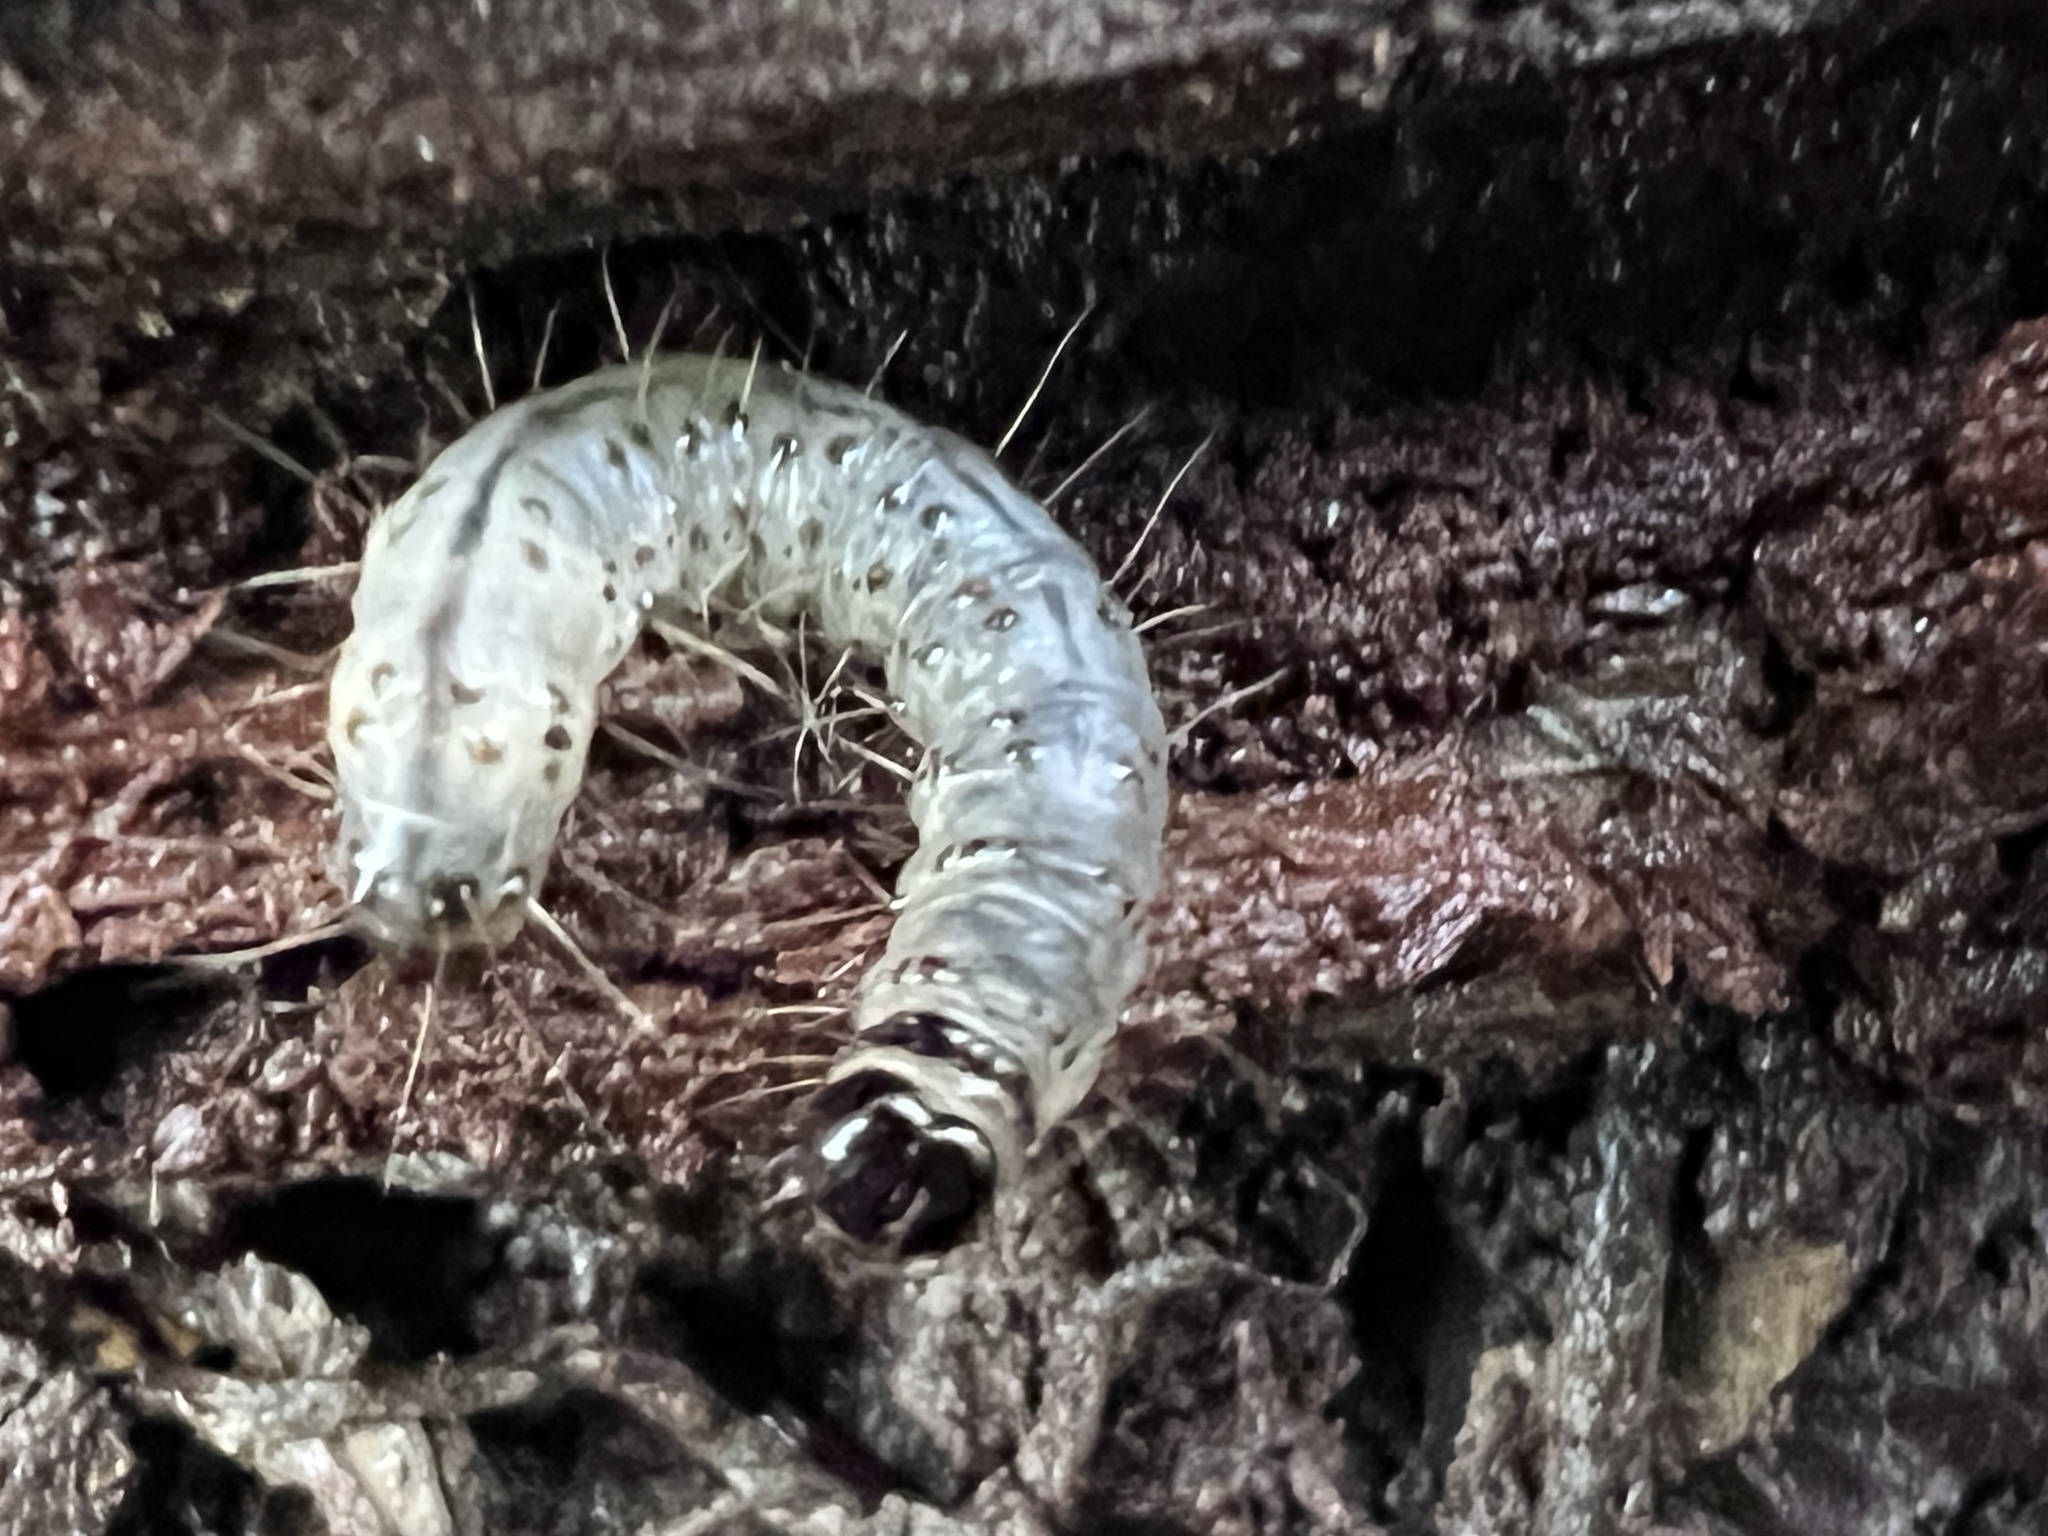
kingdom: Animalia
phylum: Arthropoda
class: Insecta
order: Lepidoptera
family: Erebidae
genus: Scolecocampa
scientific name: Scolecocampa liburna
